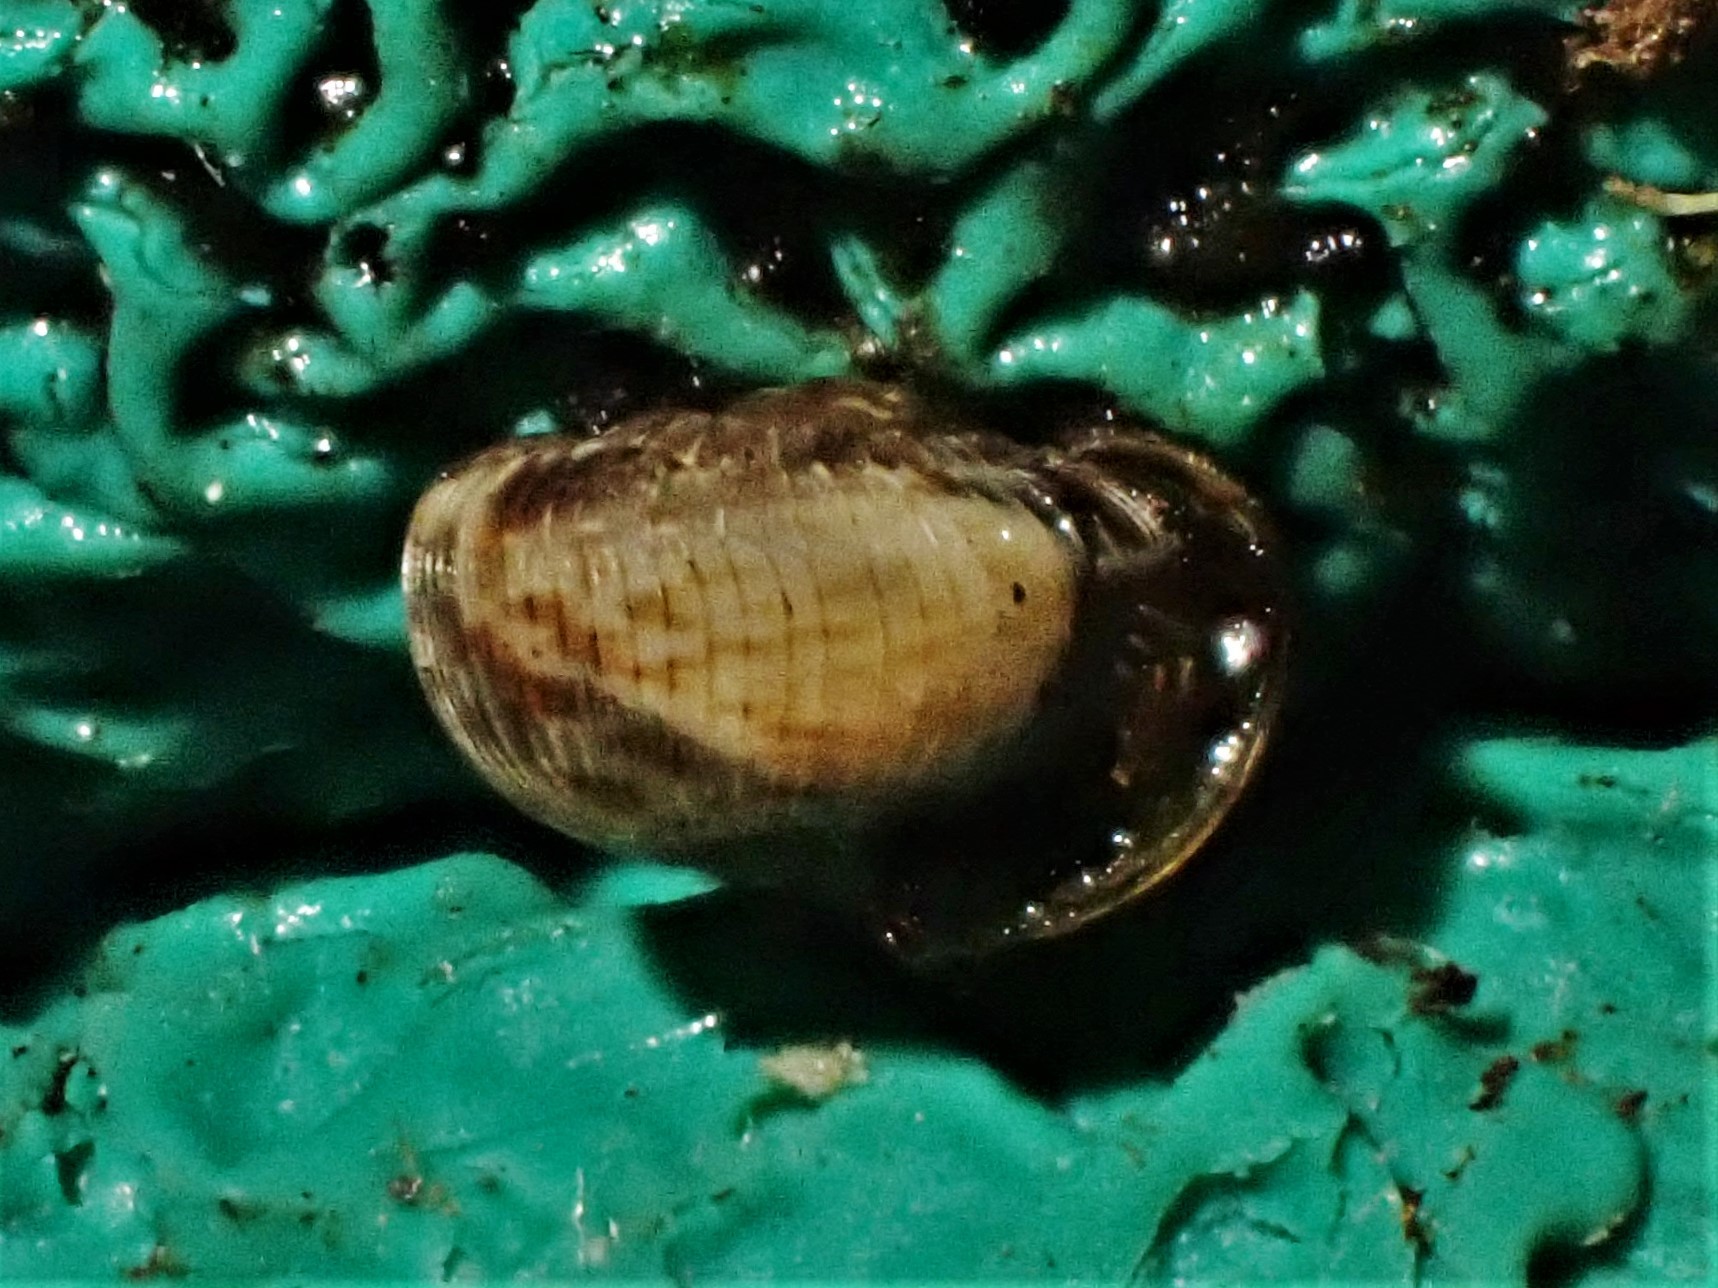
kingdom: Animalia
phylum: Mollusca
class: Gastropoda
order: Stylommatophora
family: Charopidae
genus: Phenacohelix
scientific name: Phenacohelix ponsonbyi
